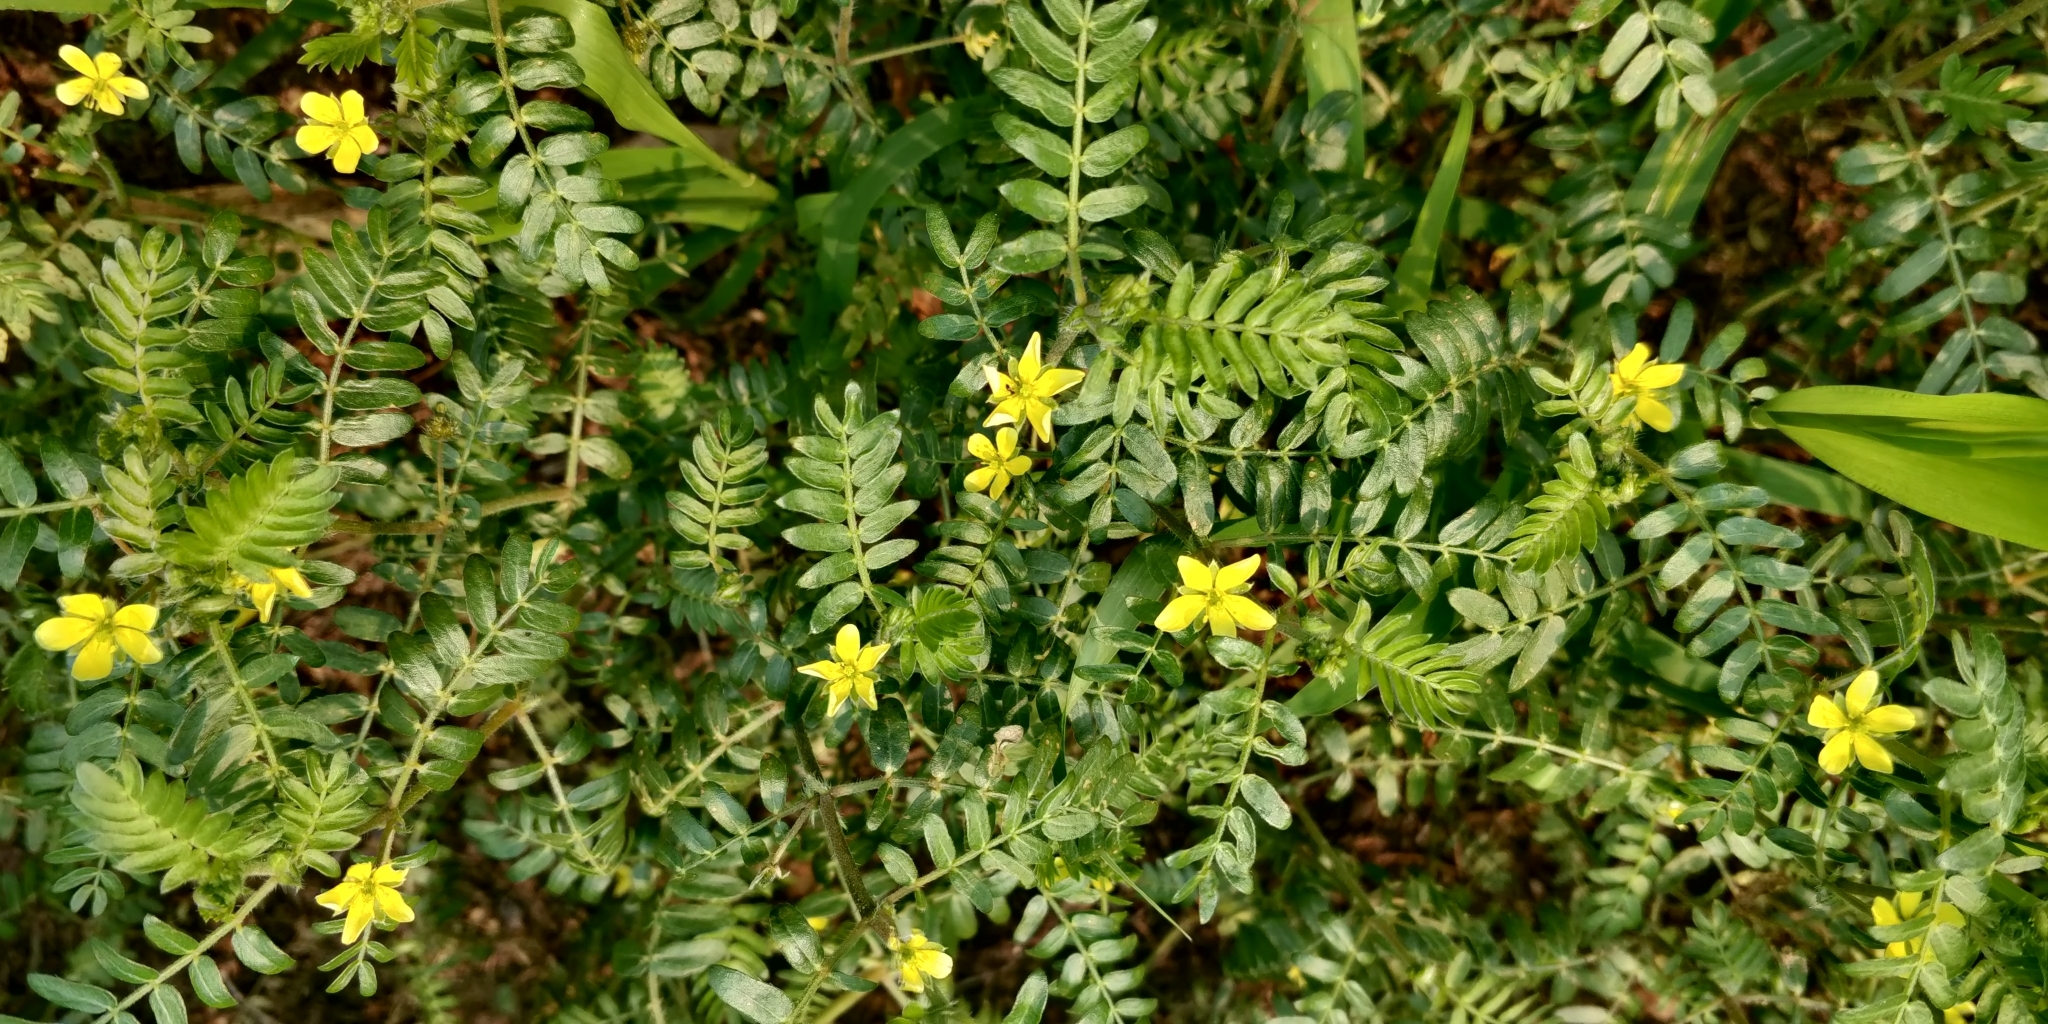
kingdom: Plantae
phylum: Tracheophyta
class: Magnoliopsida
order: Zygophyllales
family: Zygophyllaceae
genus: Tribulus
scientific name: Tribulus terrestris
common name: Puncturevine
